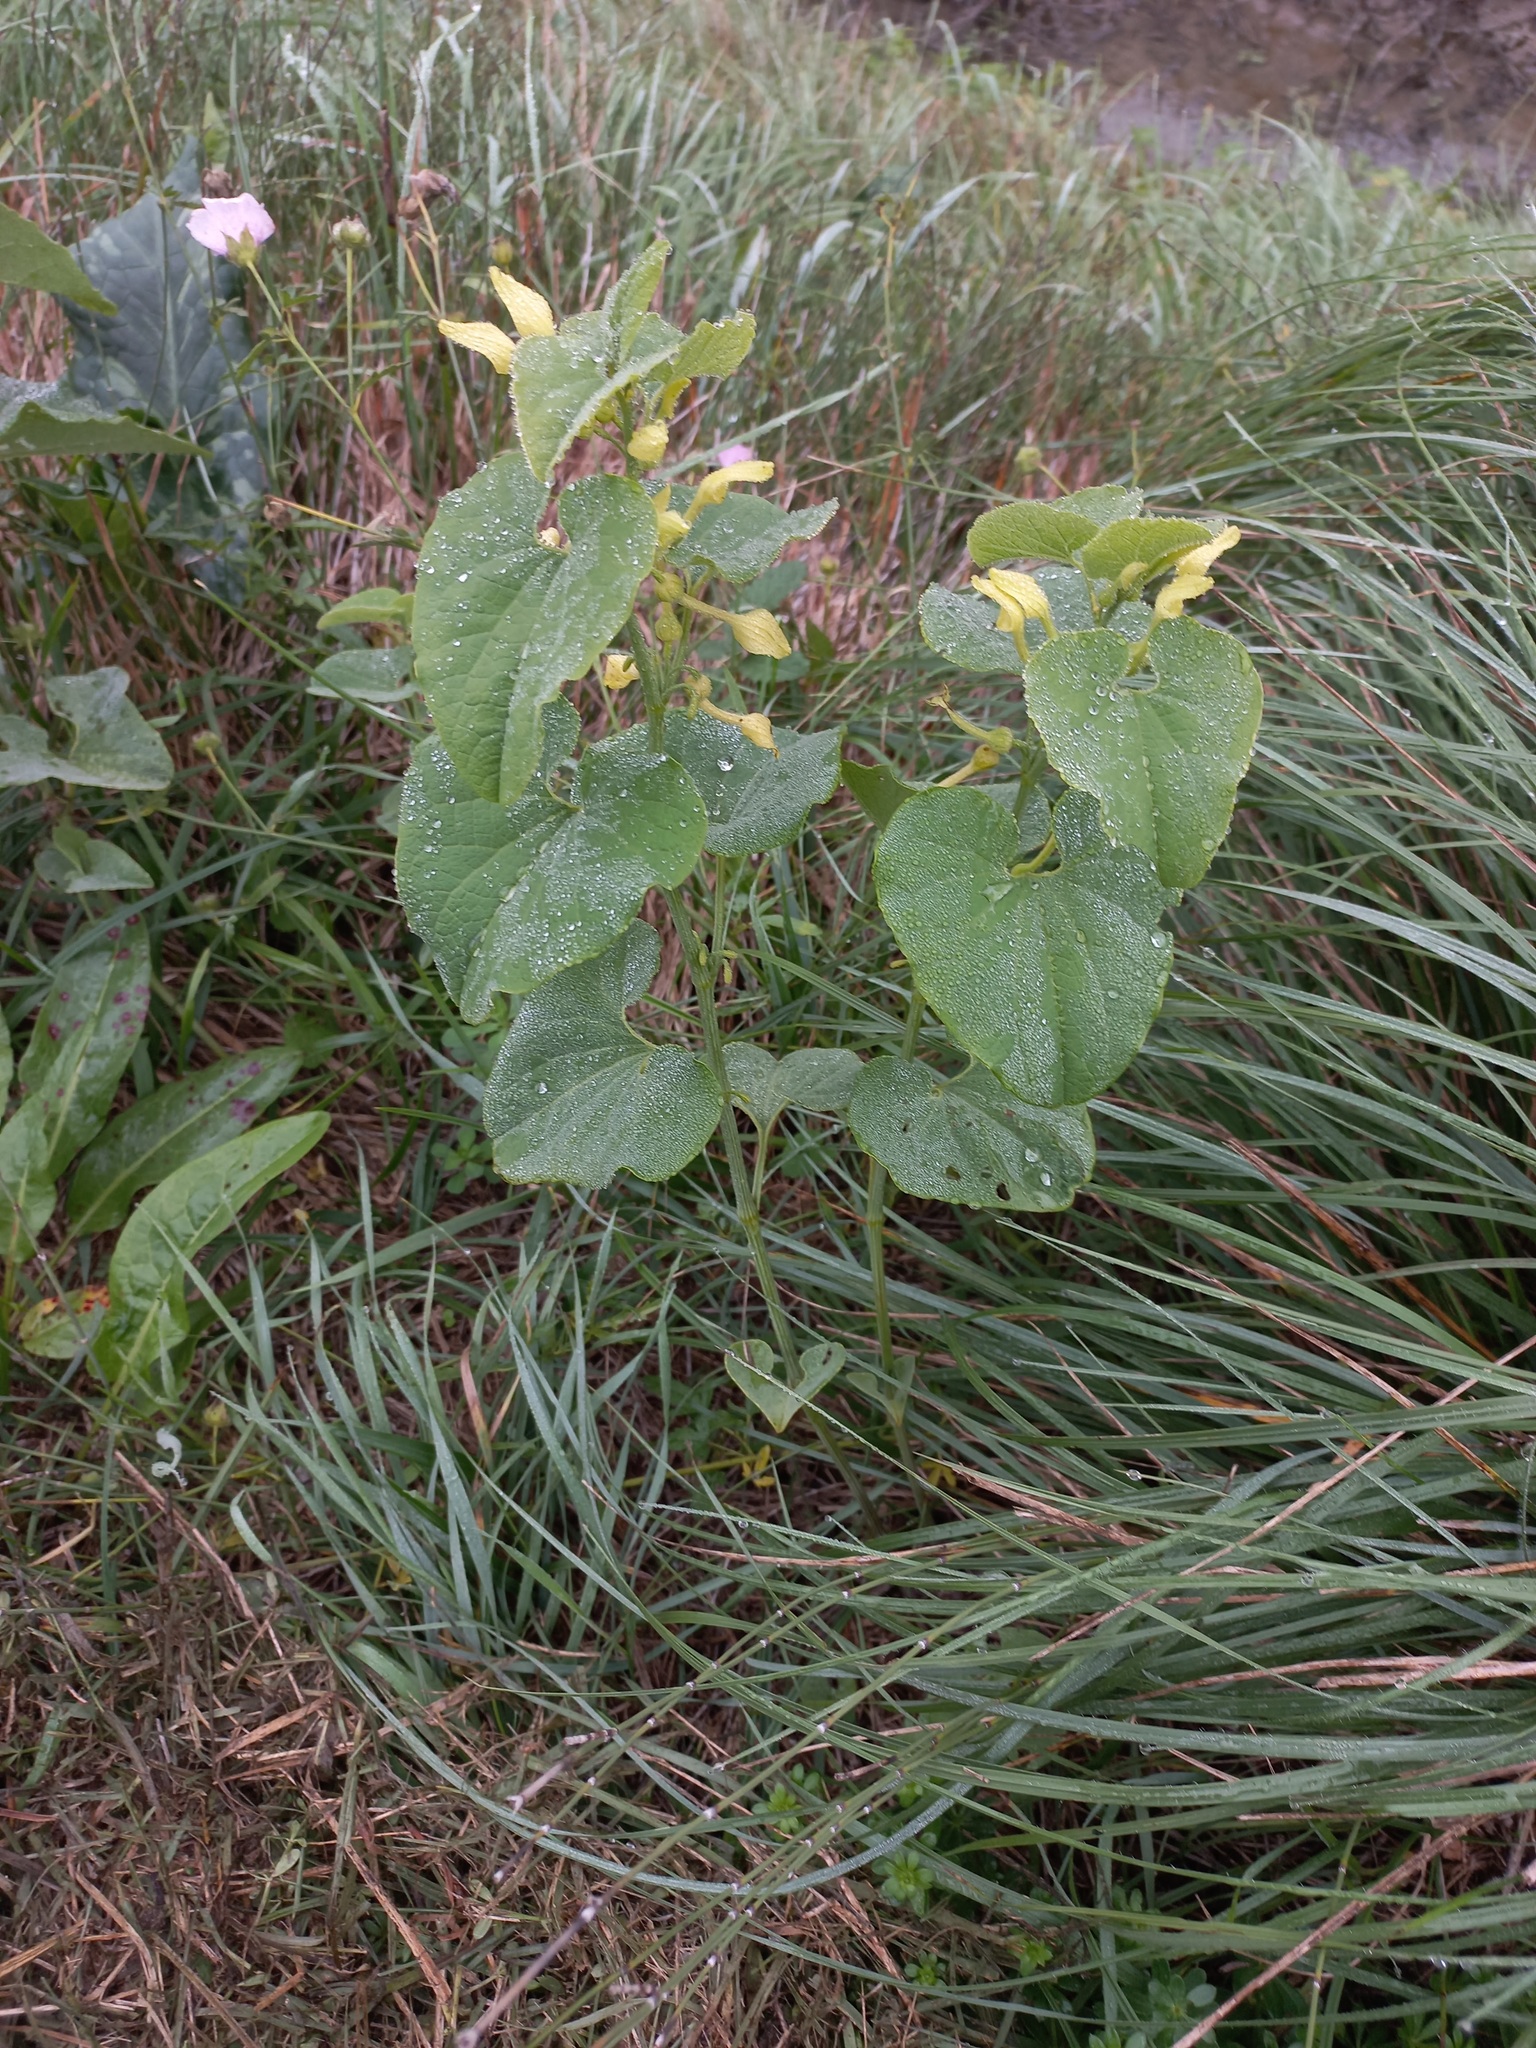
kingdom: Plantae
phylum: Tracheophyta
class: Magnoliopsida
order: Piperales
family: Aristolochiaceae
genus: Aristolochia
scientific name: Aristolochia clematitis
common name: Birthwort
